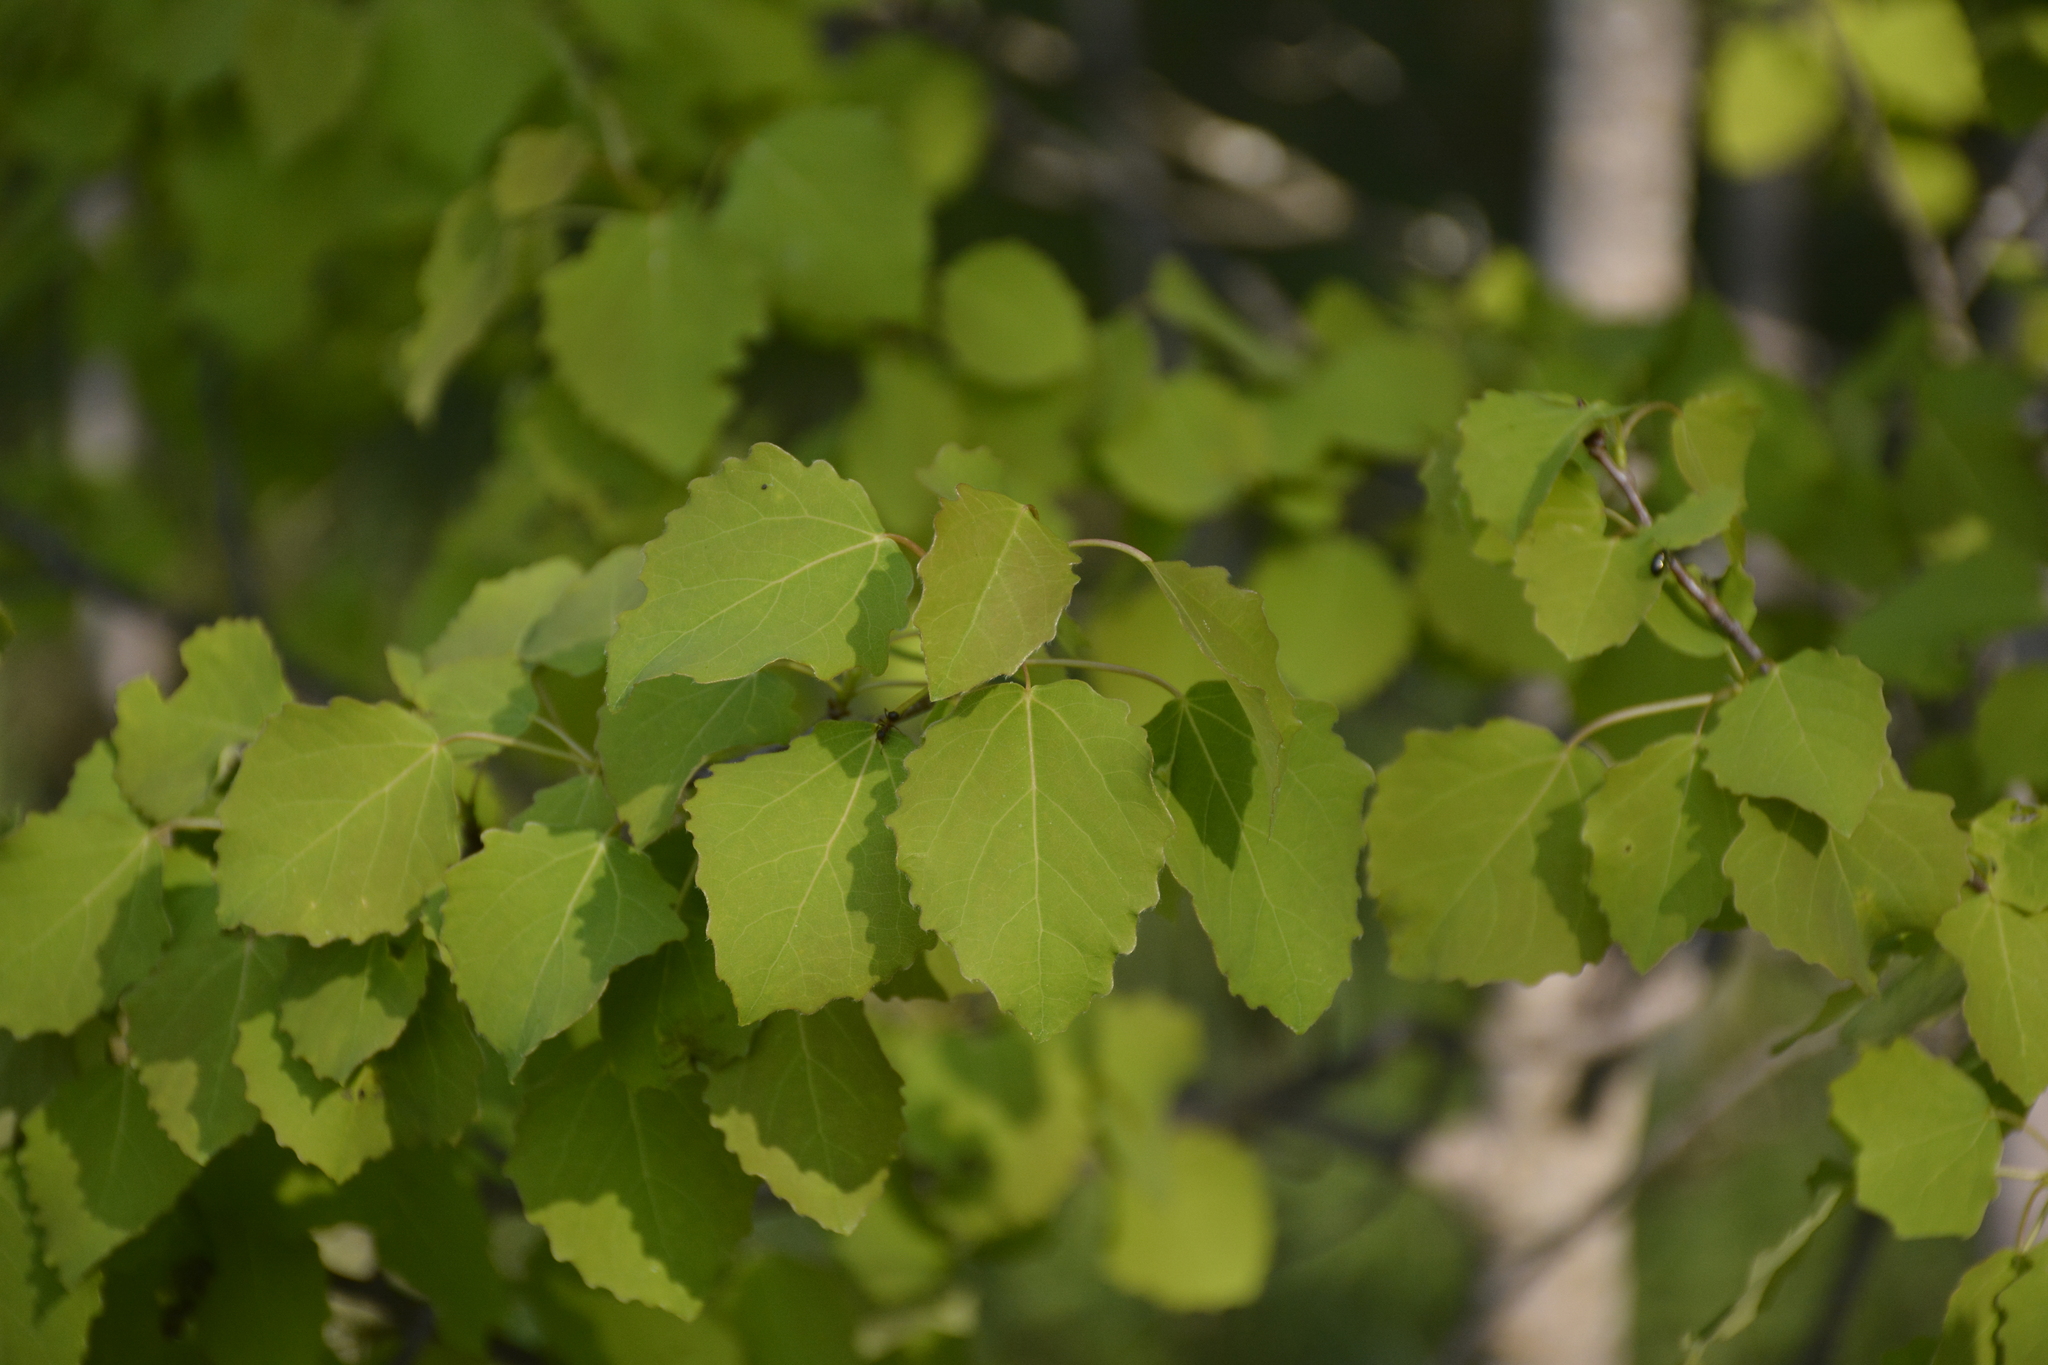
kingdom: Plantae
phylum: Tracheophyta
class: Magnoliopsida
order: Malpighiales
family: Salicaceae
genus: Populus
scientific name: Populus tremula
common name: European aspen
